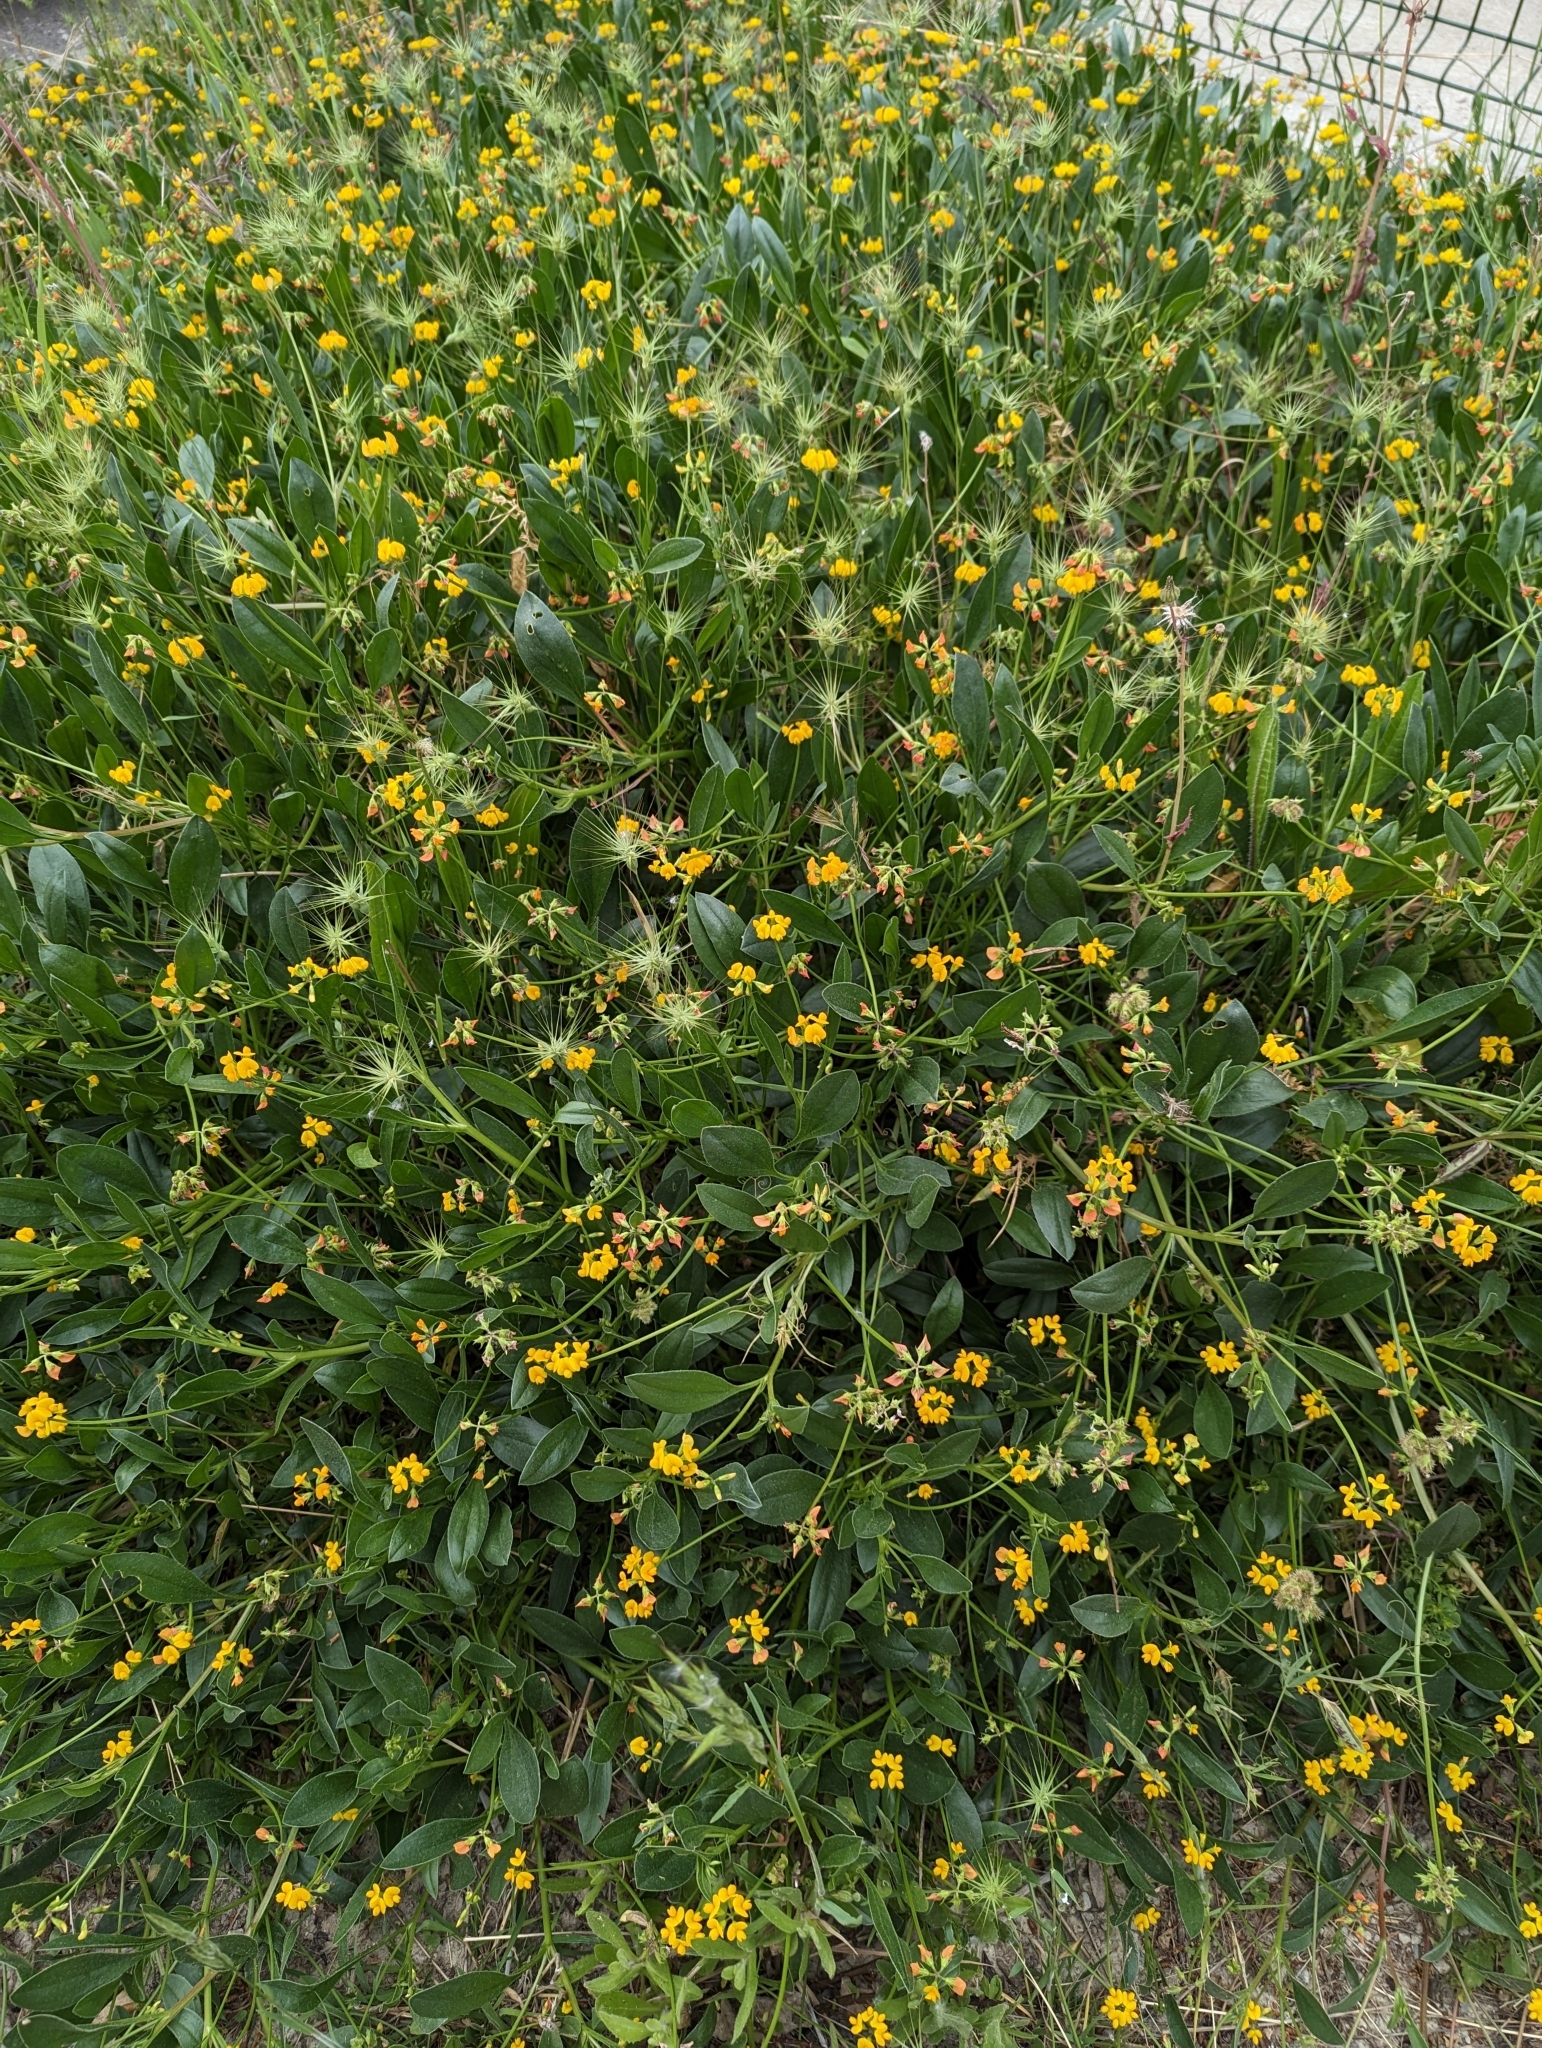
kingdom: Plantae
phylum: Tracheophyta
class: Magnoliopsida
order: Fabales
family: Fabaceae
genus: Scorpiurus
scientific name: Scorpiurus muricatus
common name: Caterpillar-plant
